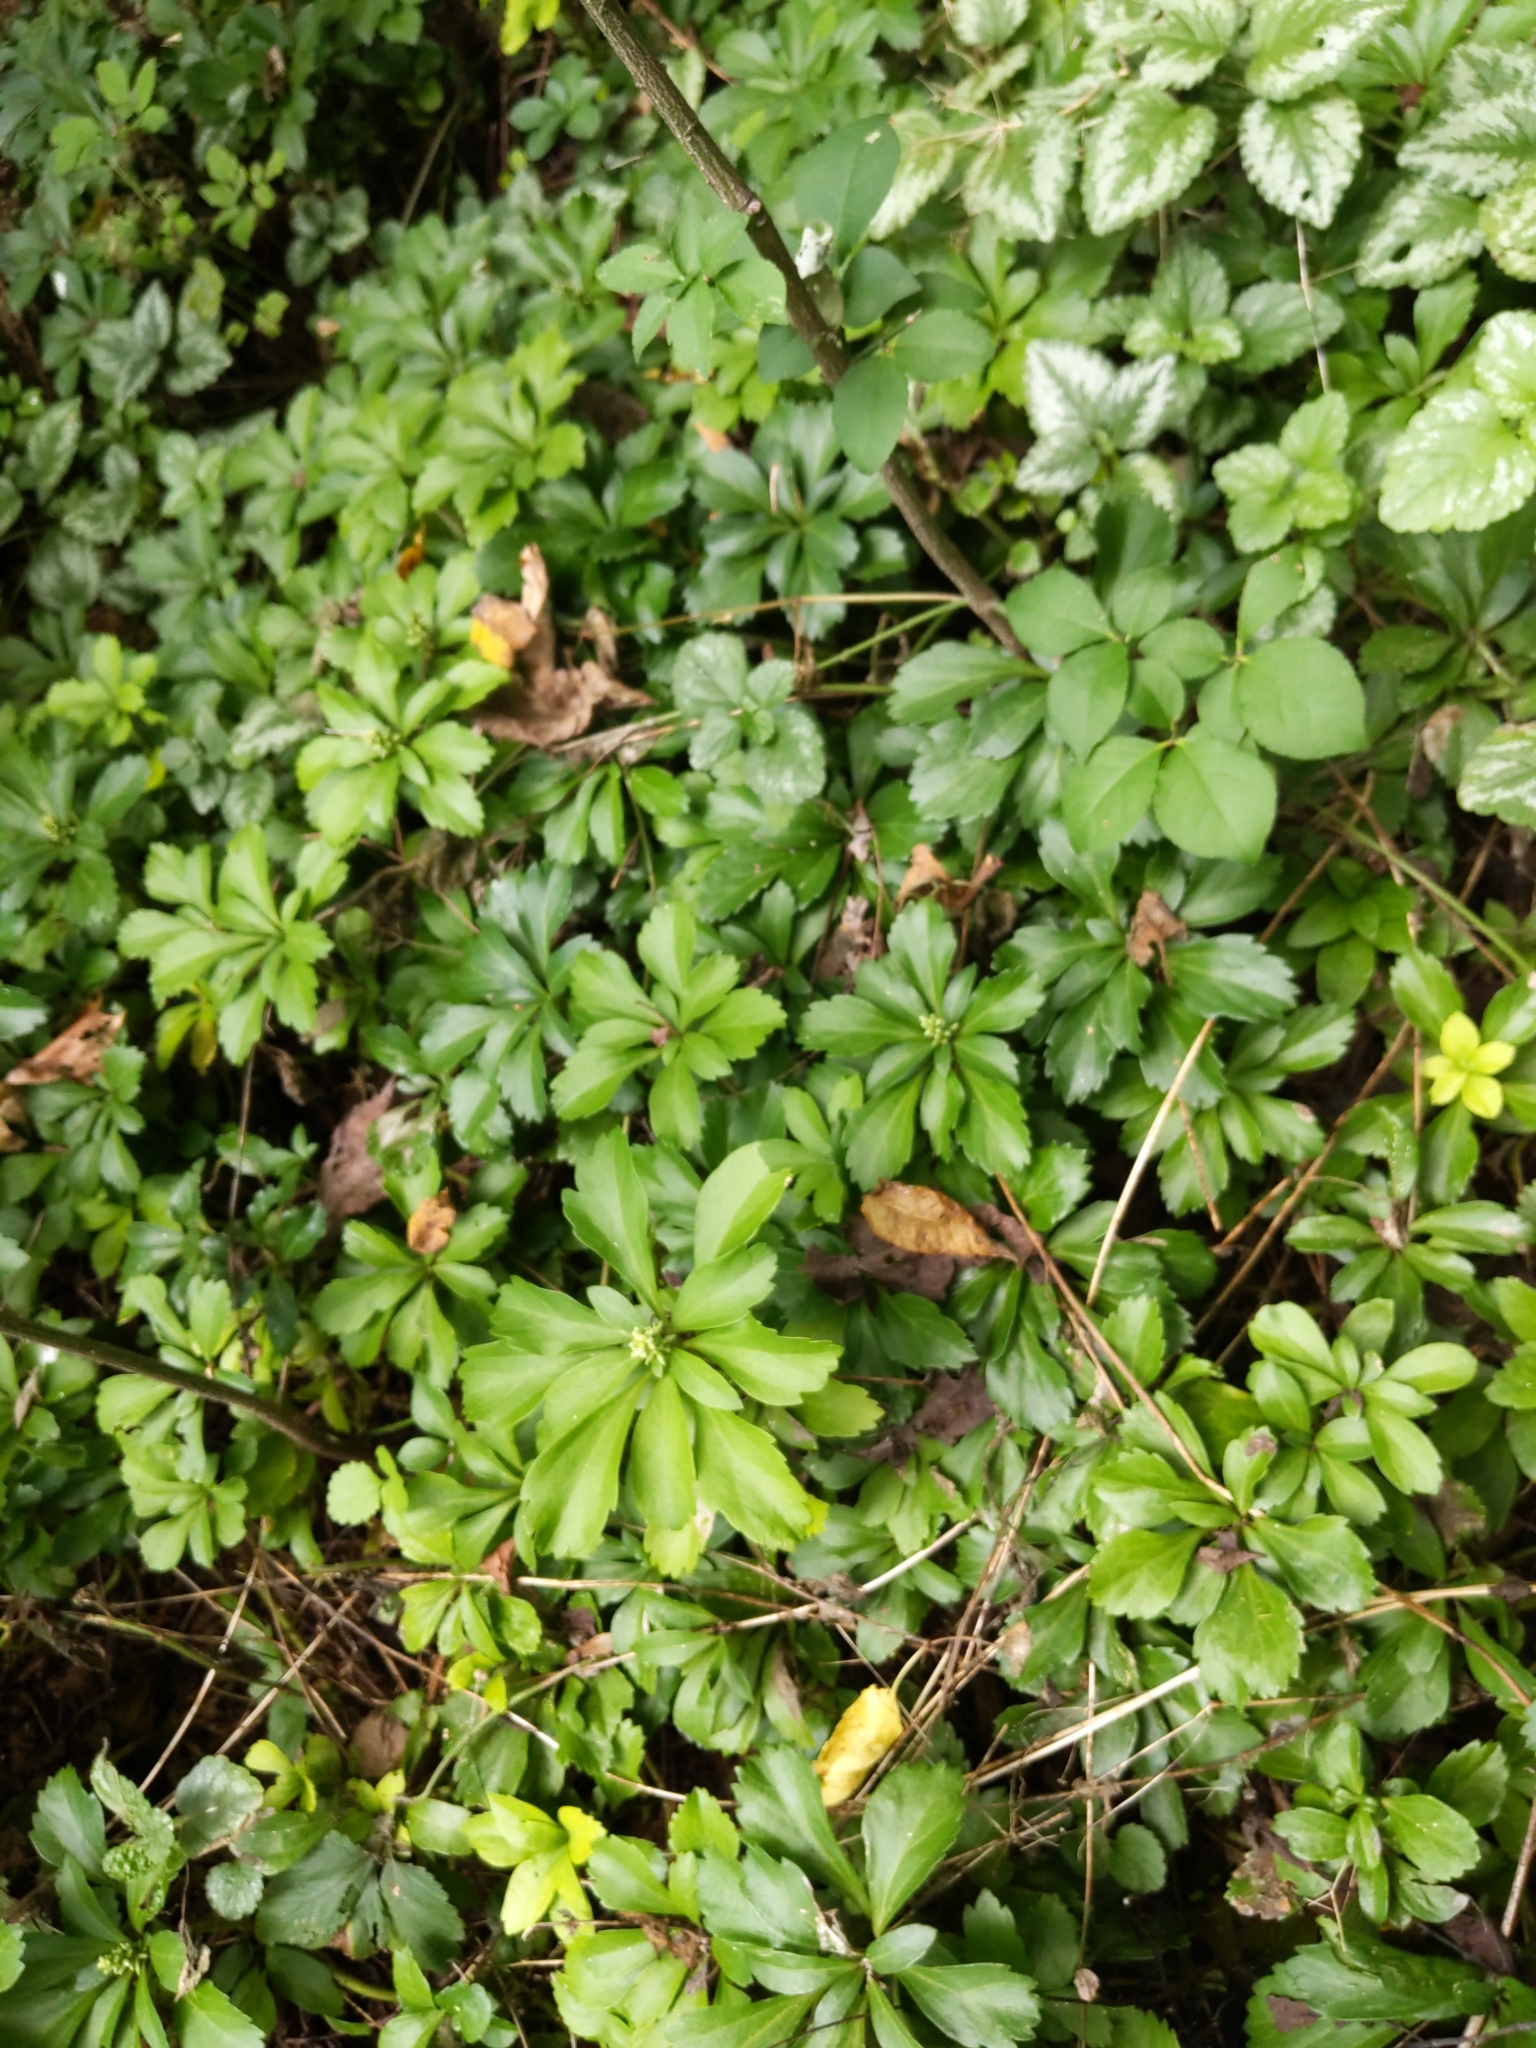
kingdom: Plantae
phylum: Tracheophyta
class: Magnoliopsida
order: Buxales
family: Buxaceae
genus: Pachysandra
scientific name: Pachysandra terminalis
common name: Japanese pachysandra
